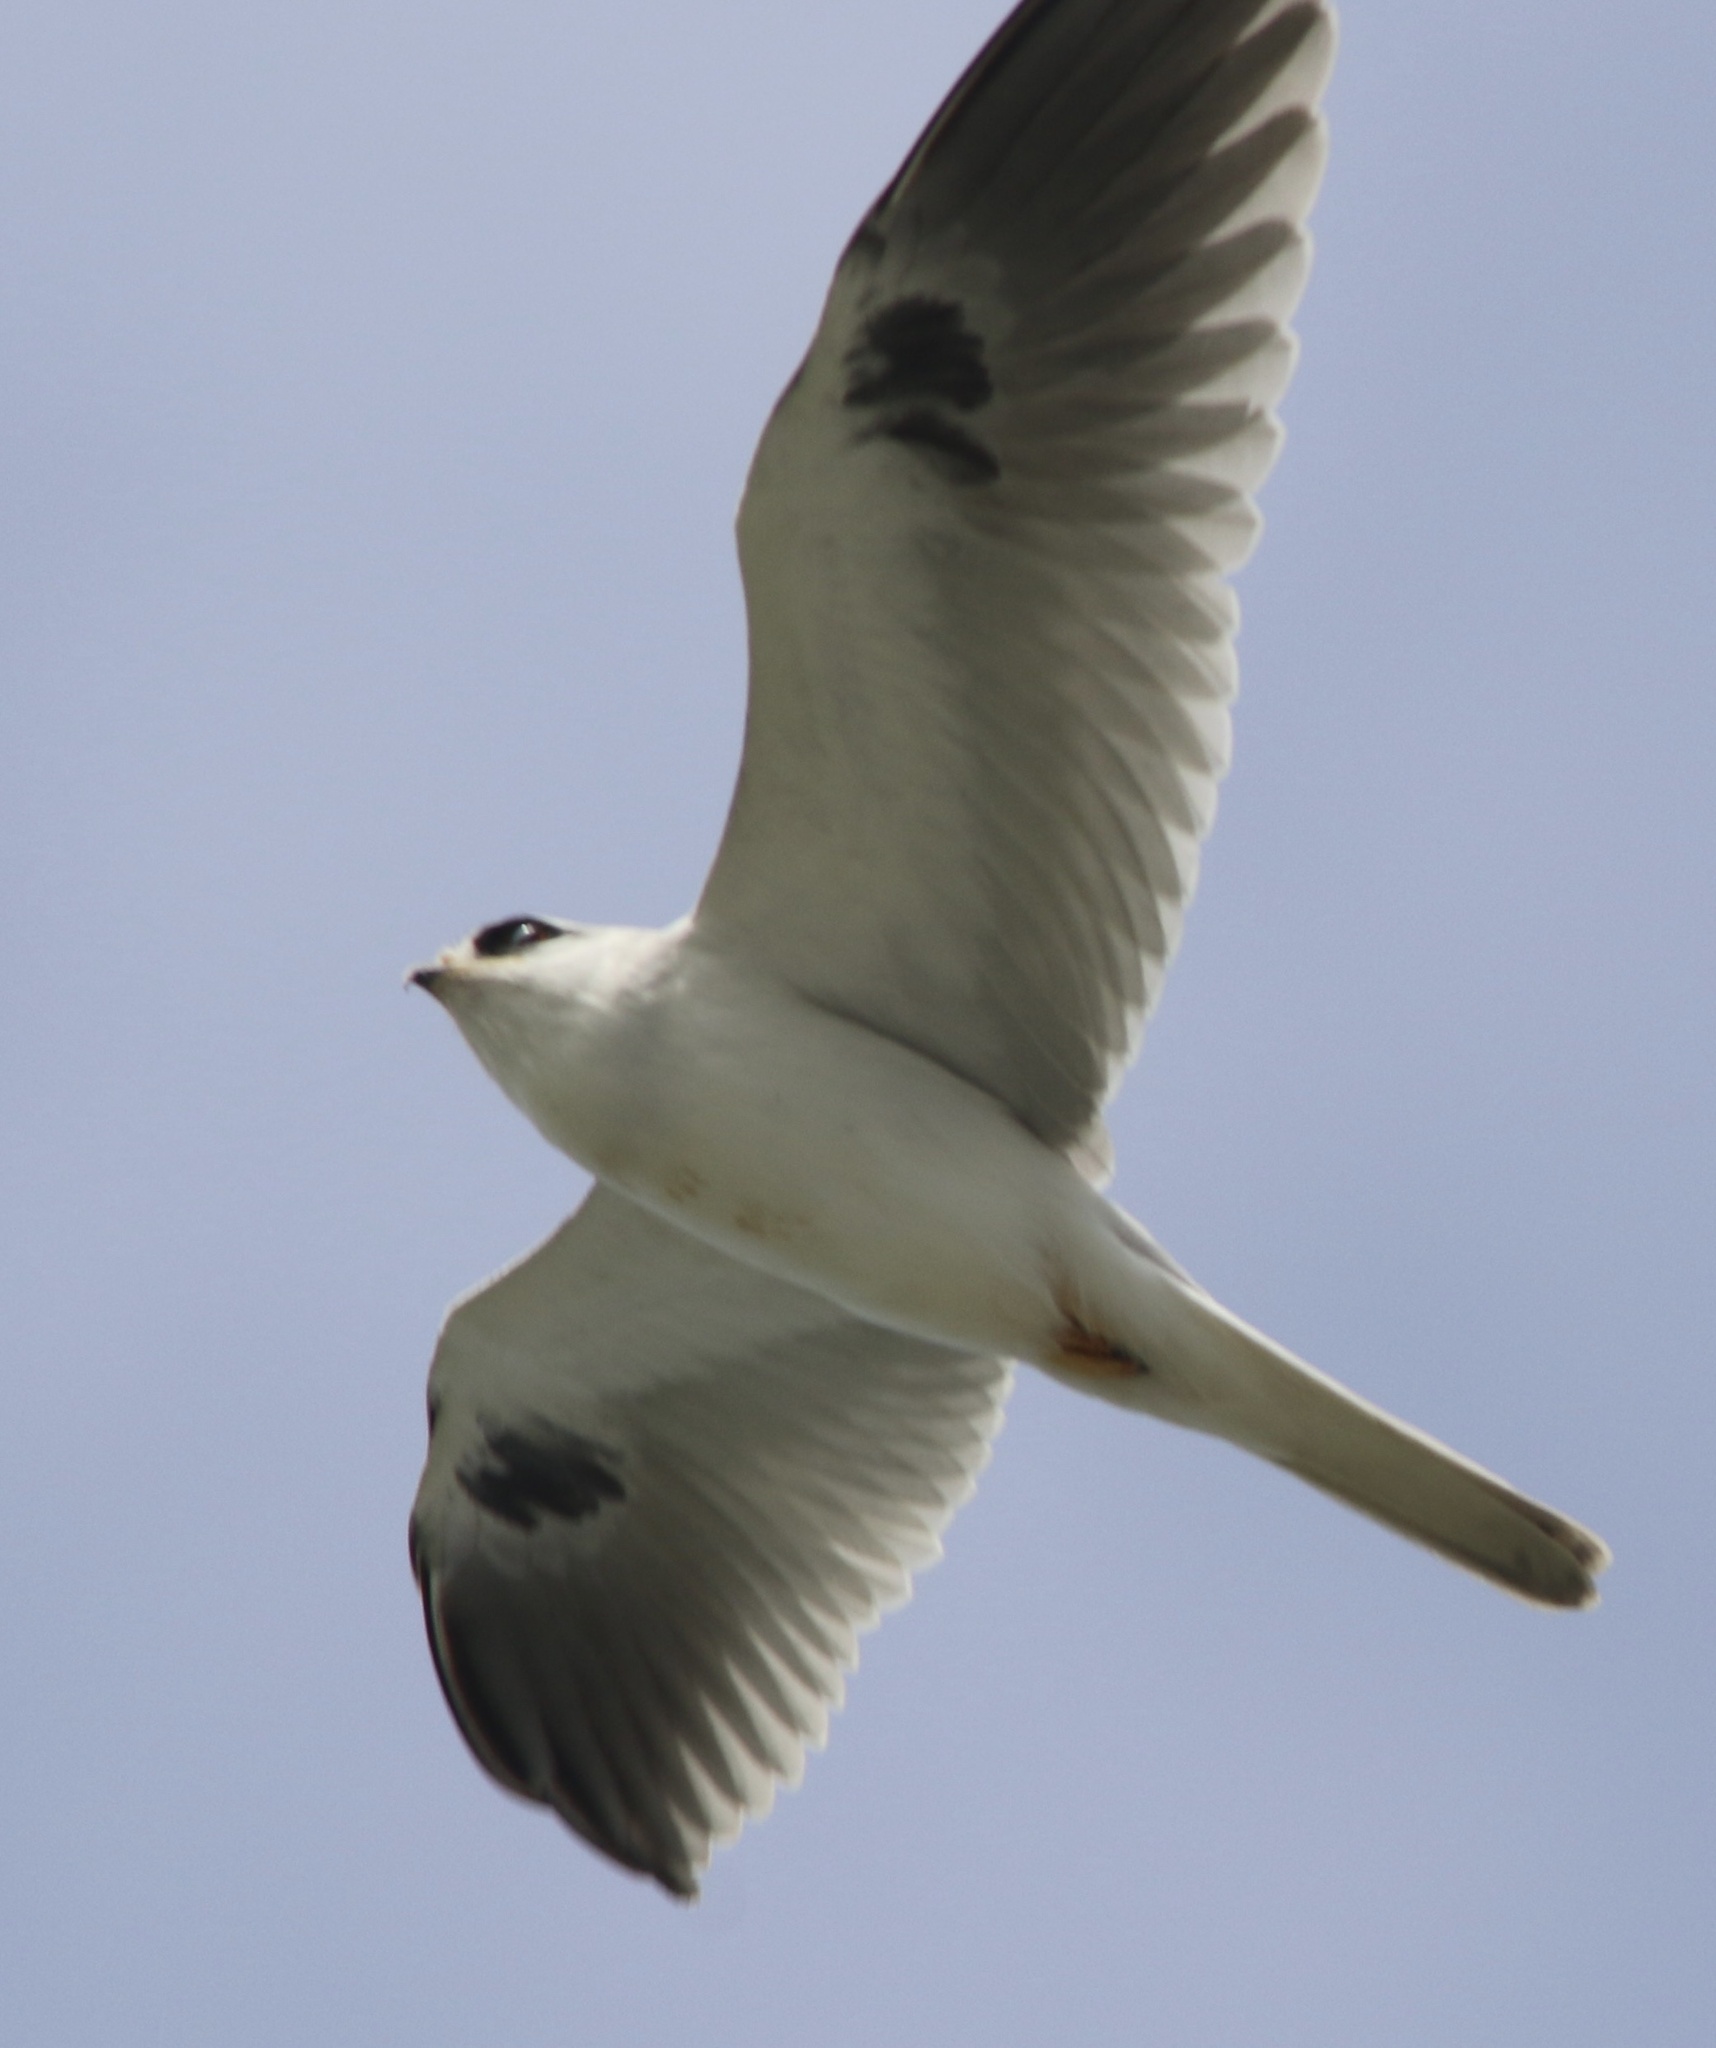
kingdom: Animalia
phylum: Chordata
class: Aves
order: Accipitriformes
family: Accipitridae
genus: Elanus
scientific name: Elanus leucurus
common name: White-tailed kite
